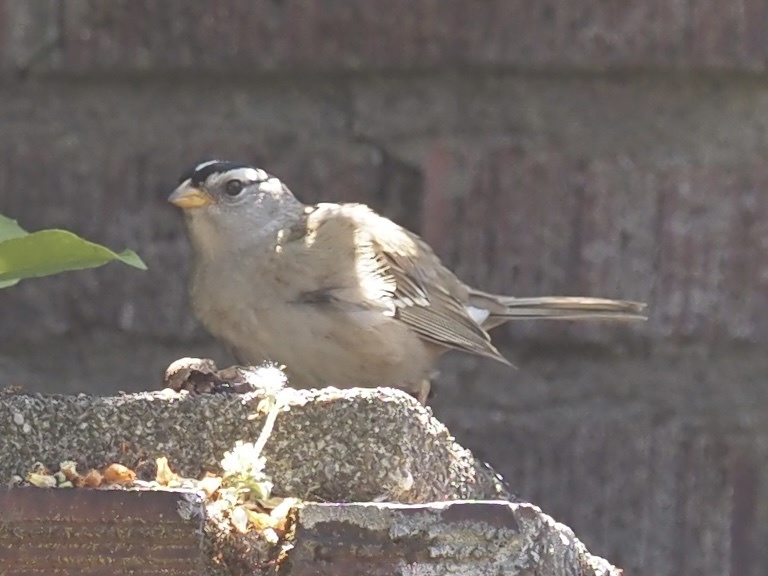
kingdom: Animalia
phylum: Chordata
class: Aves
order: Passeriformes
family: Passerellidae
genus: Zonotrichia
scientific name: Zonotrichia leucophrys
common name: White-crowned sparrow
